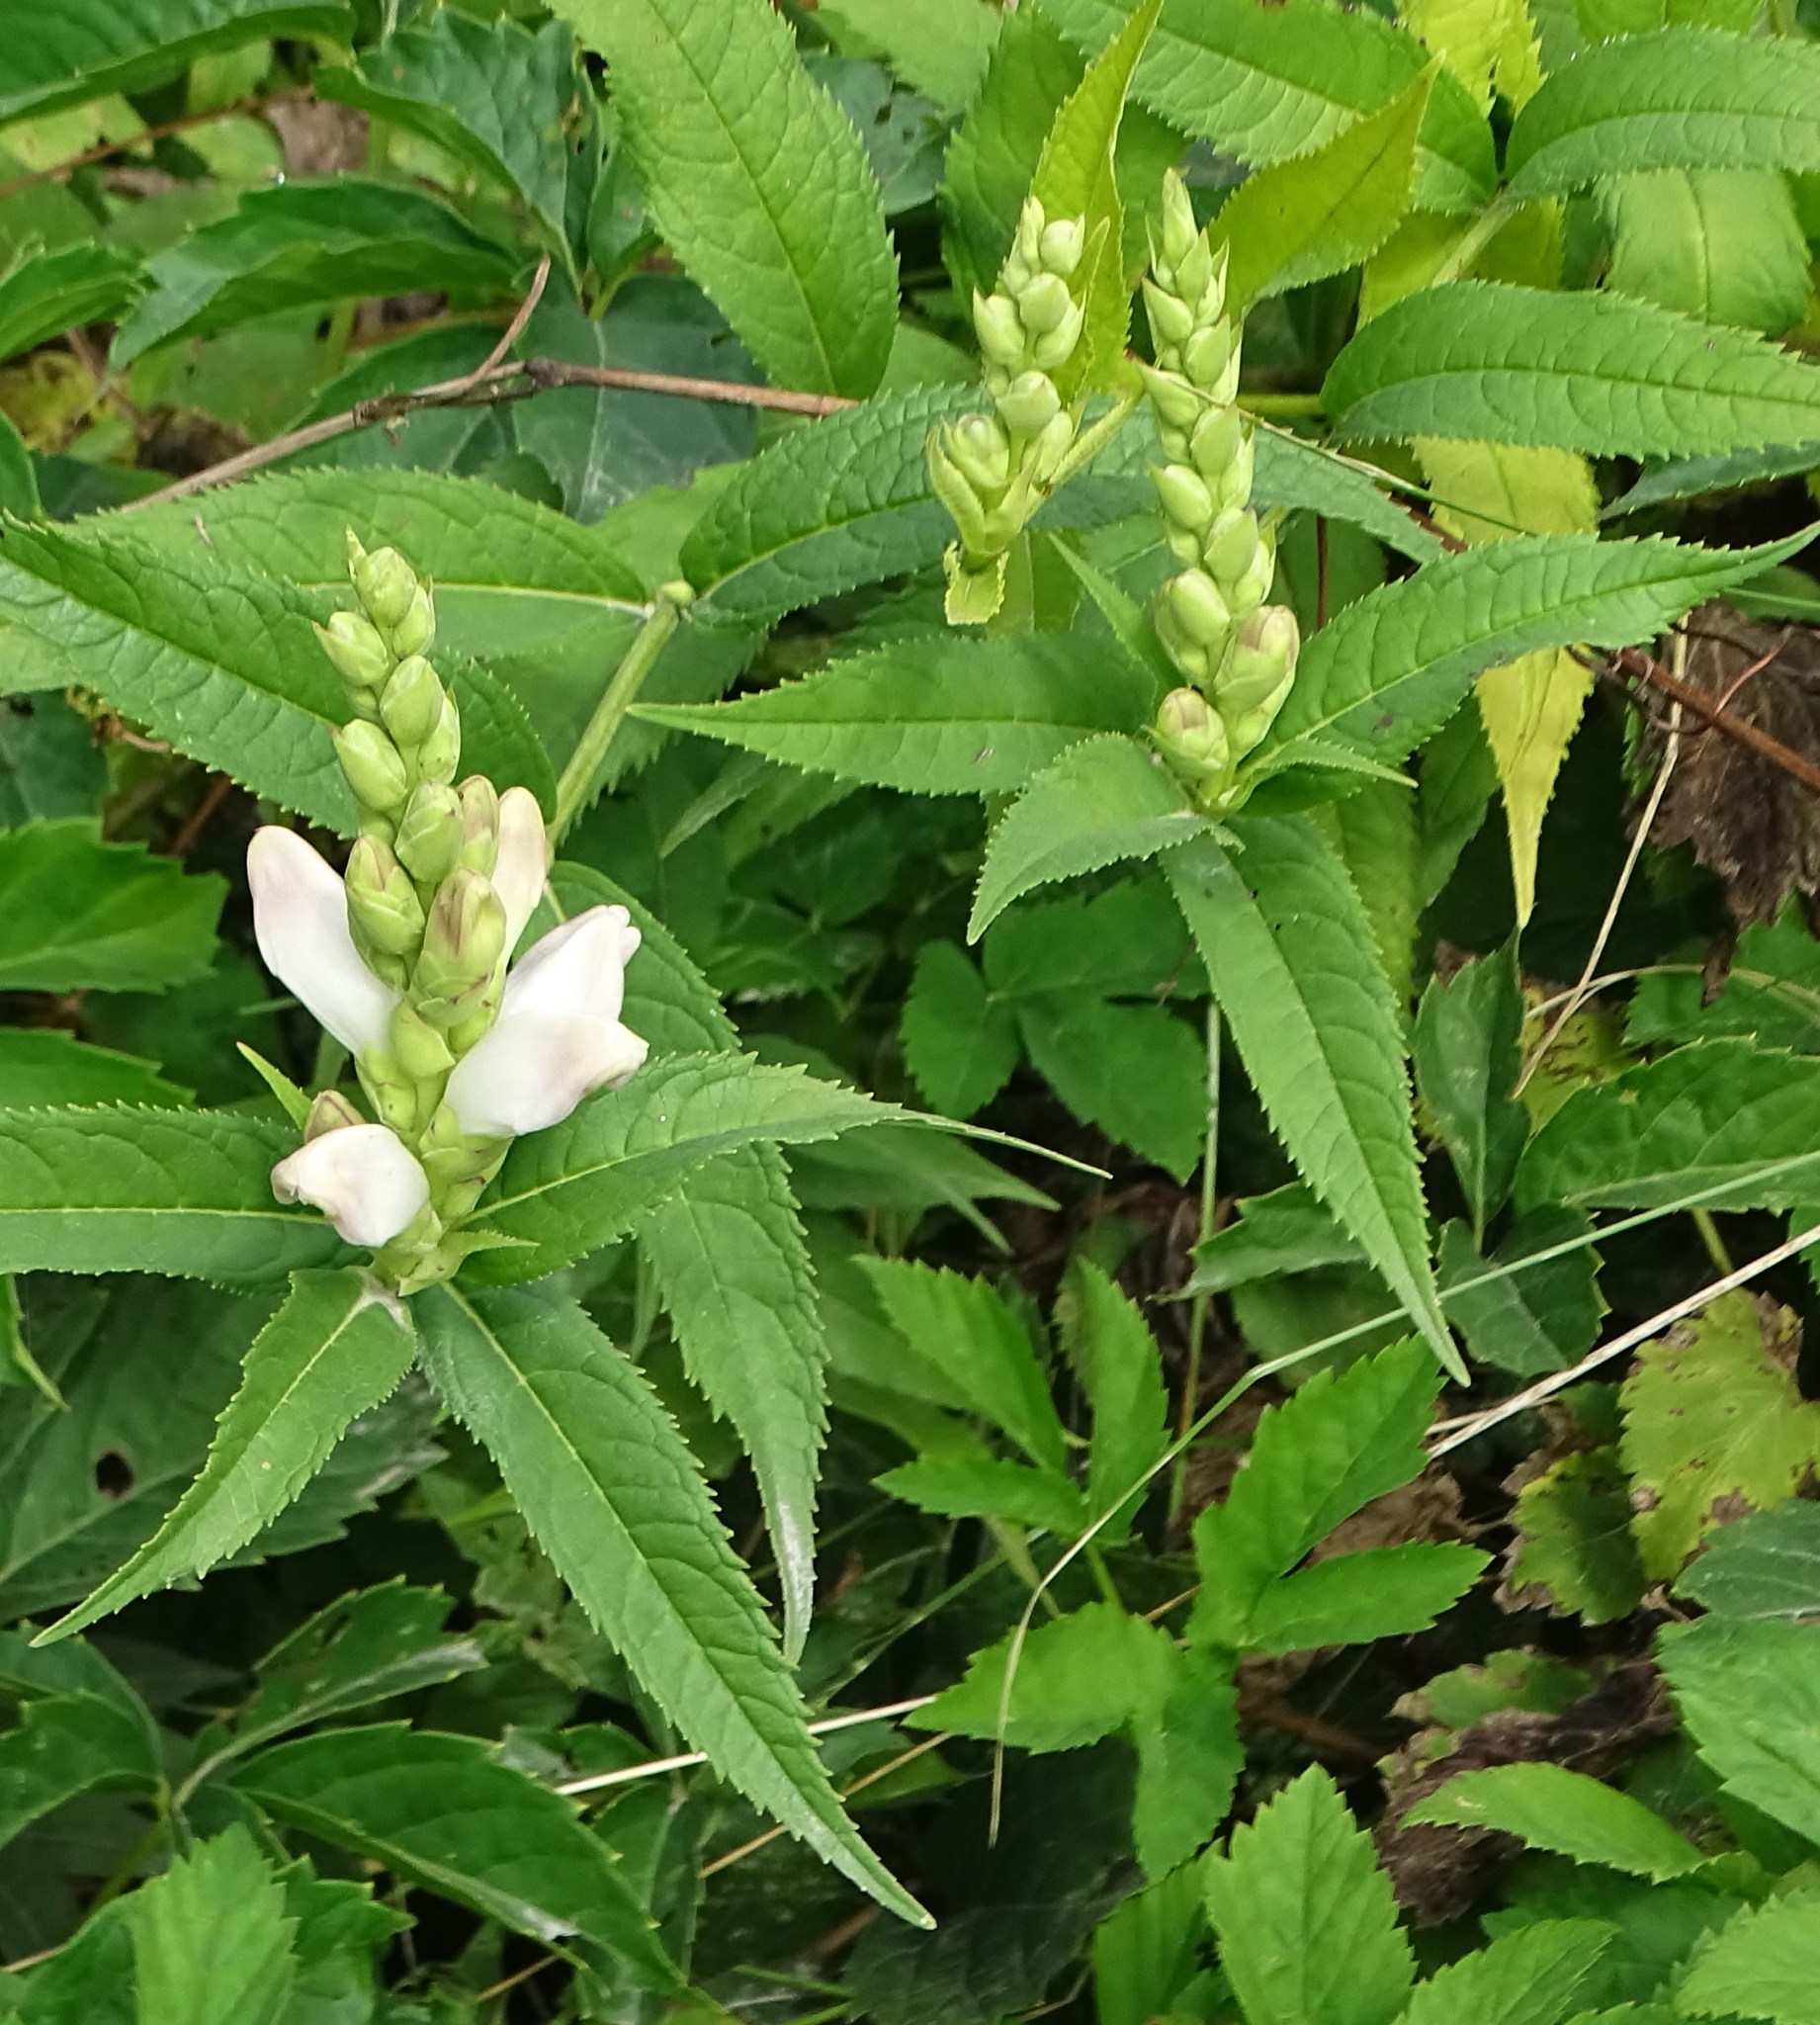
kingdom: Plantae
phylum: Tracheophyta
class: Magnoliopsida
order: Lamiales
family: Plantaginaceae
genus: Chelone
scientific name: Chelone glabra
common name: Snakehead
